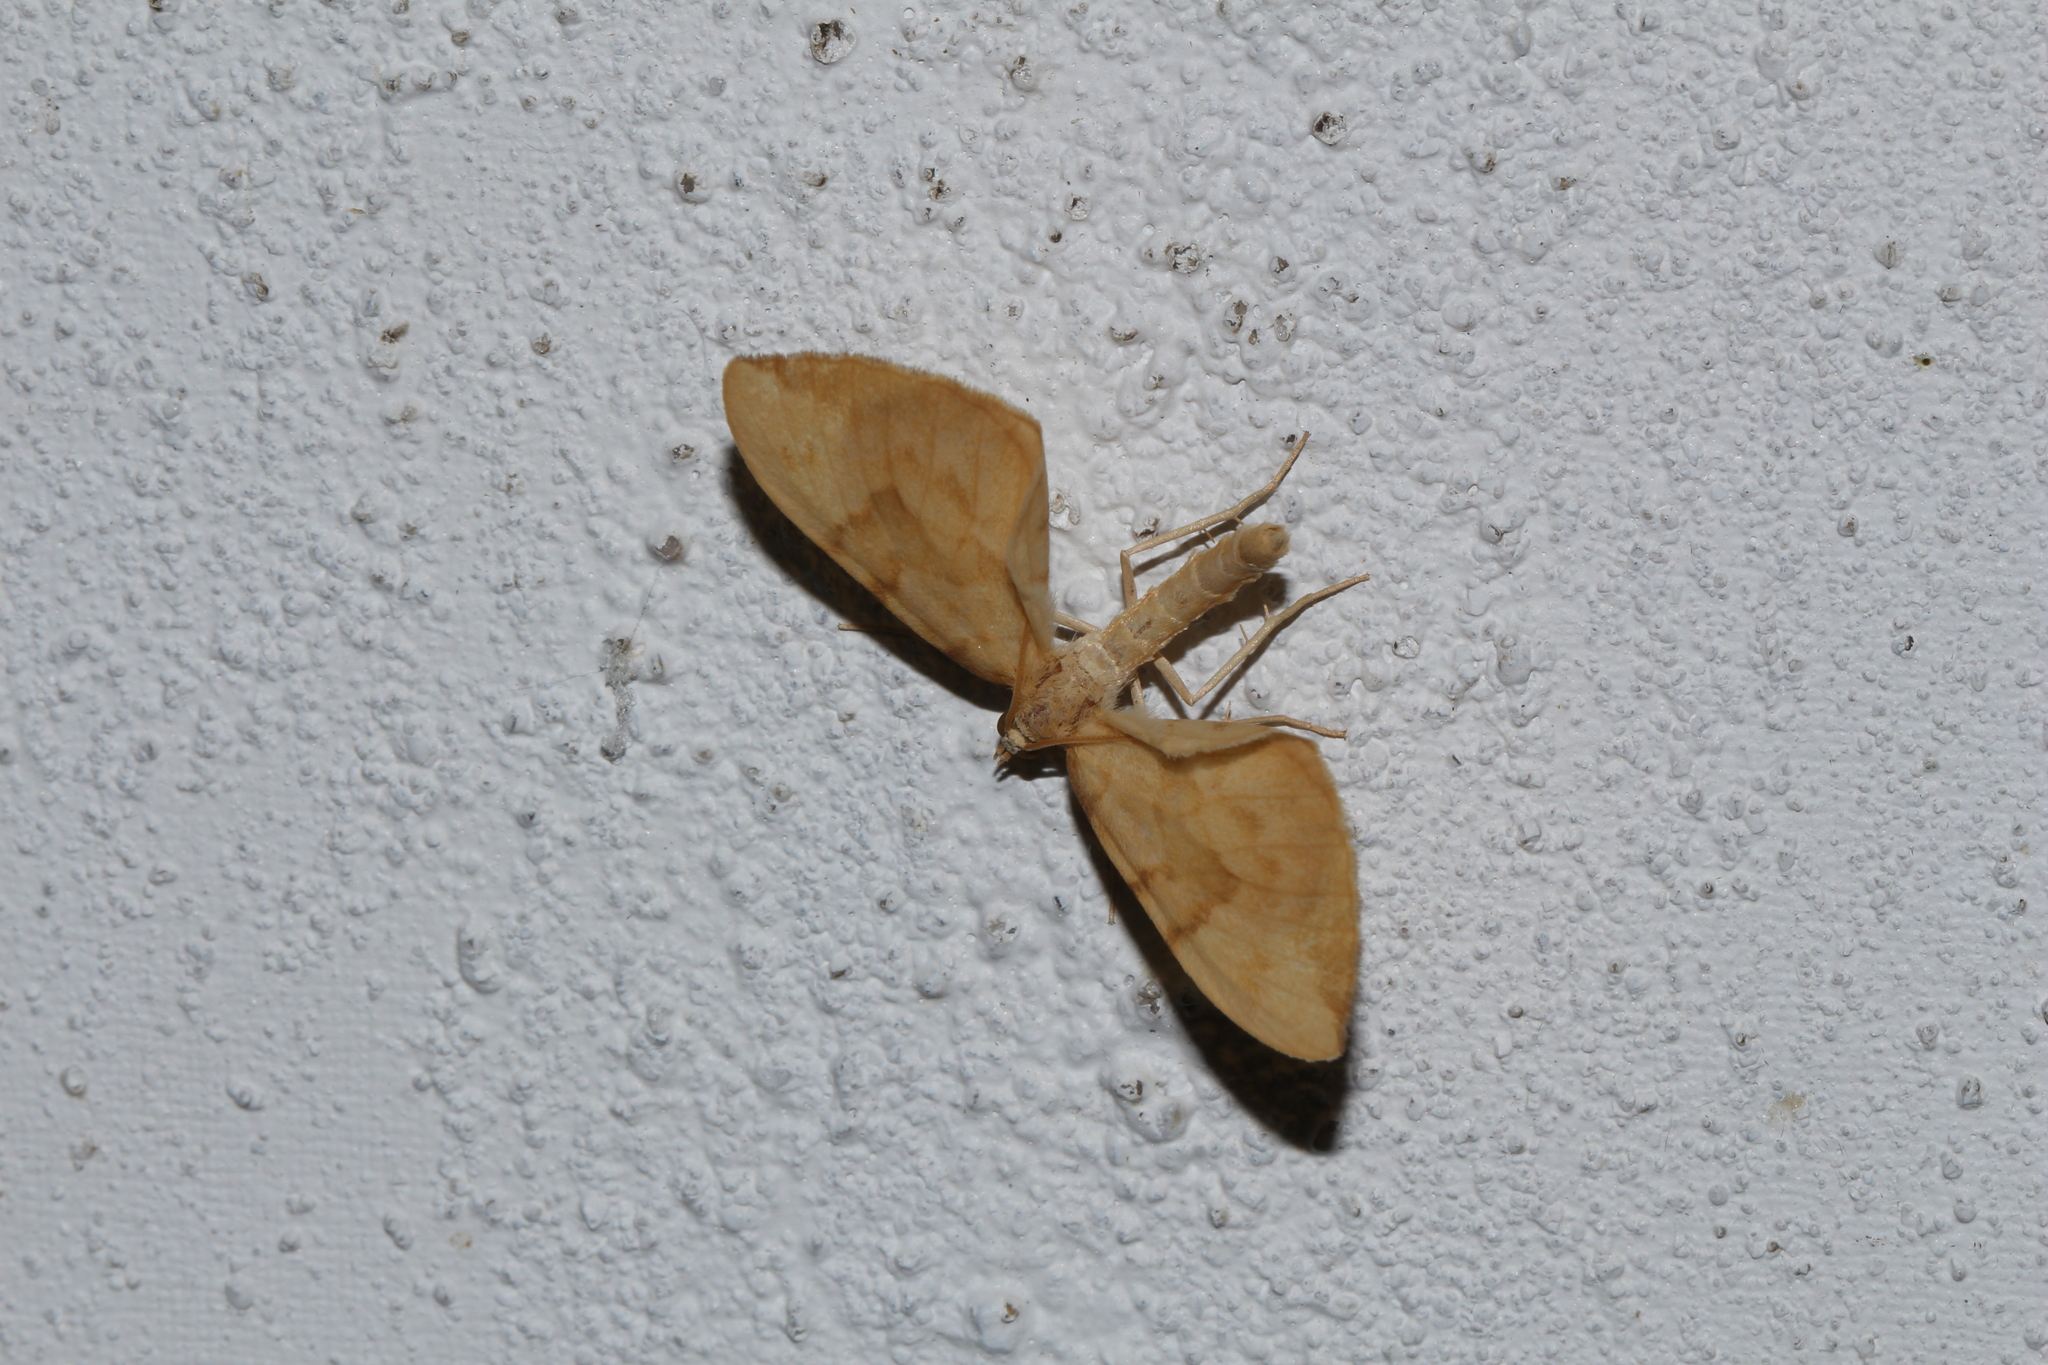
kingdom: Animalia
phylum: Arthropoda
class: Insecta
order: Lepidoptera
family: Geometridae
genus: Eulithis
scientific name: Eulithis pyraliata
